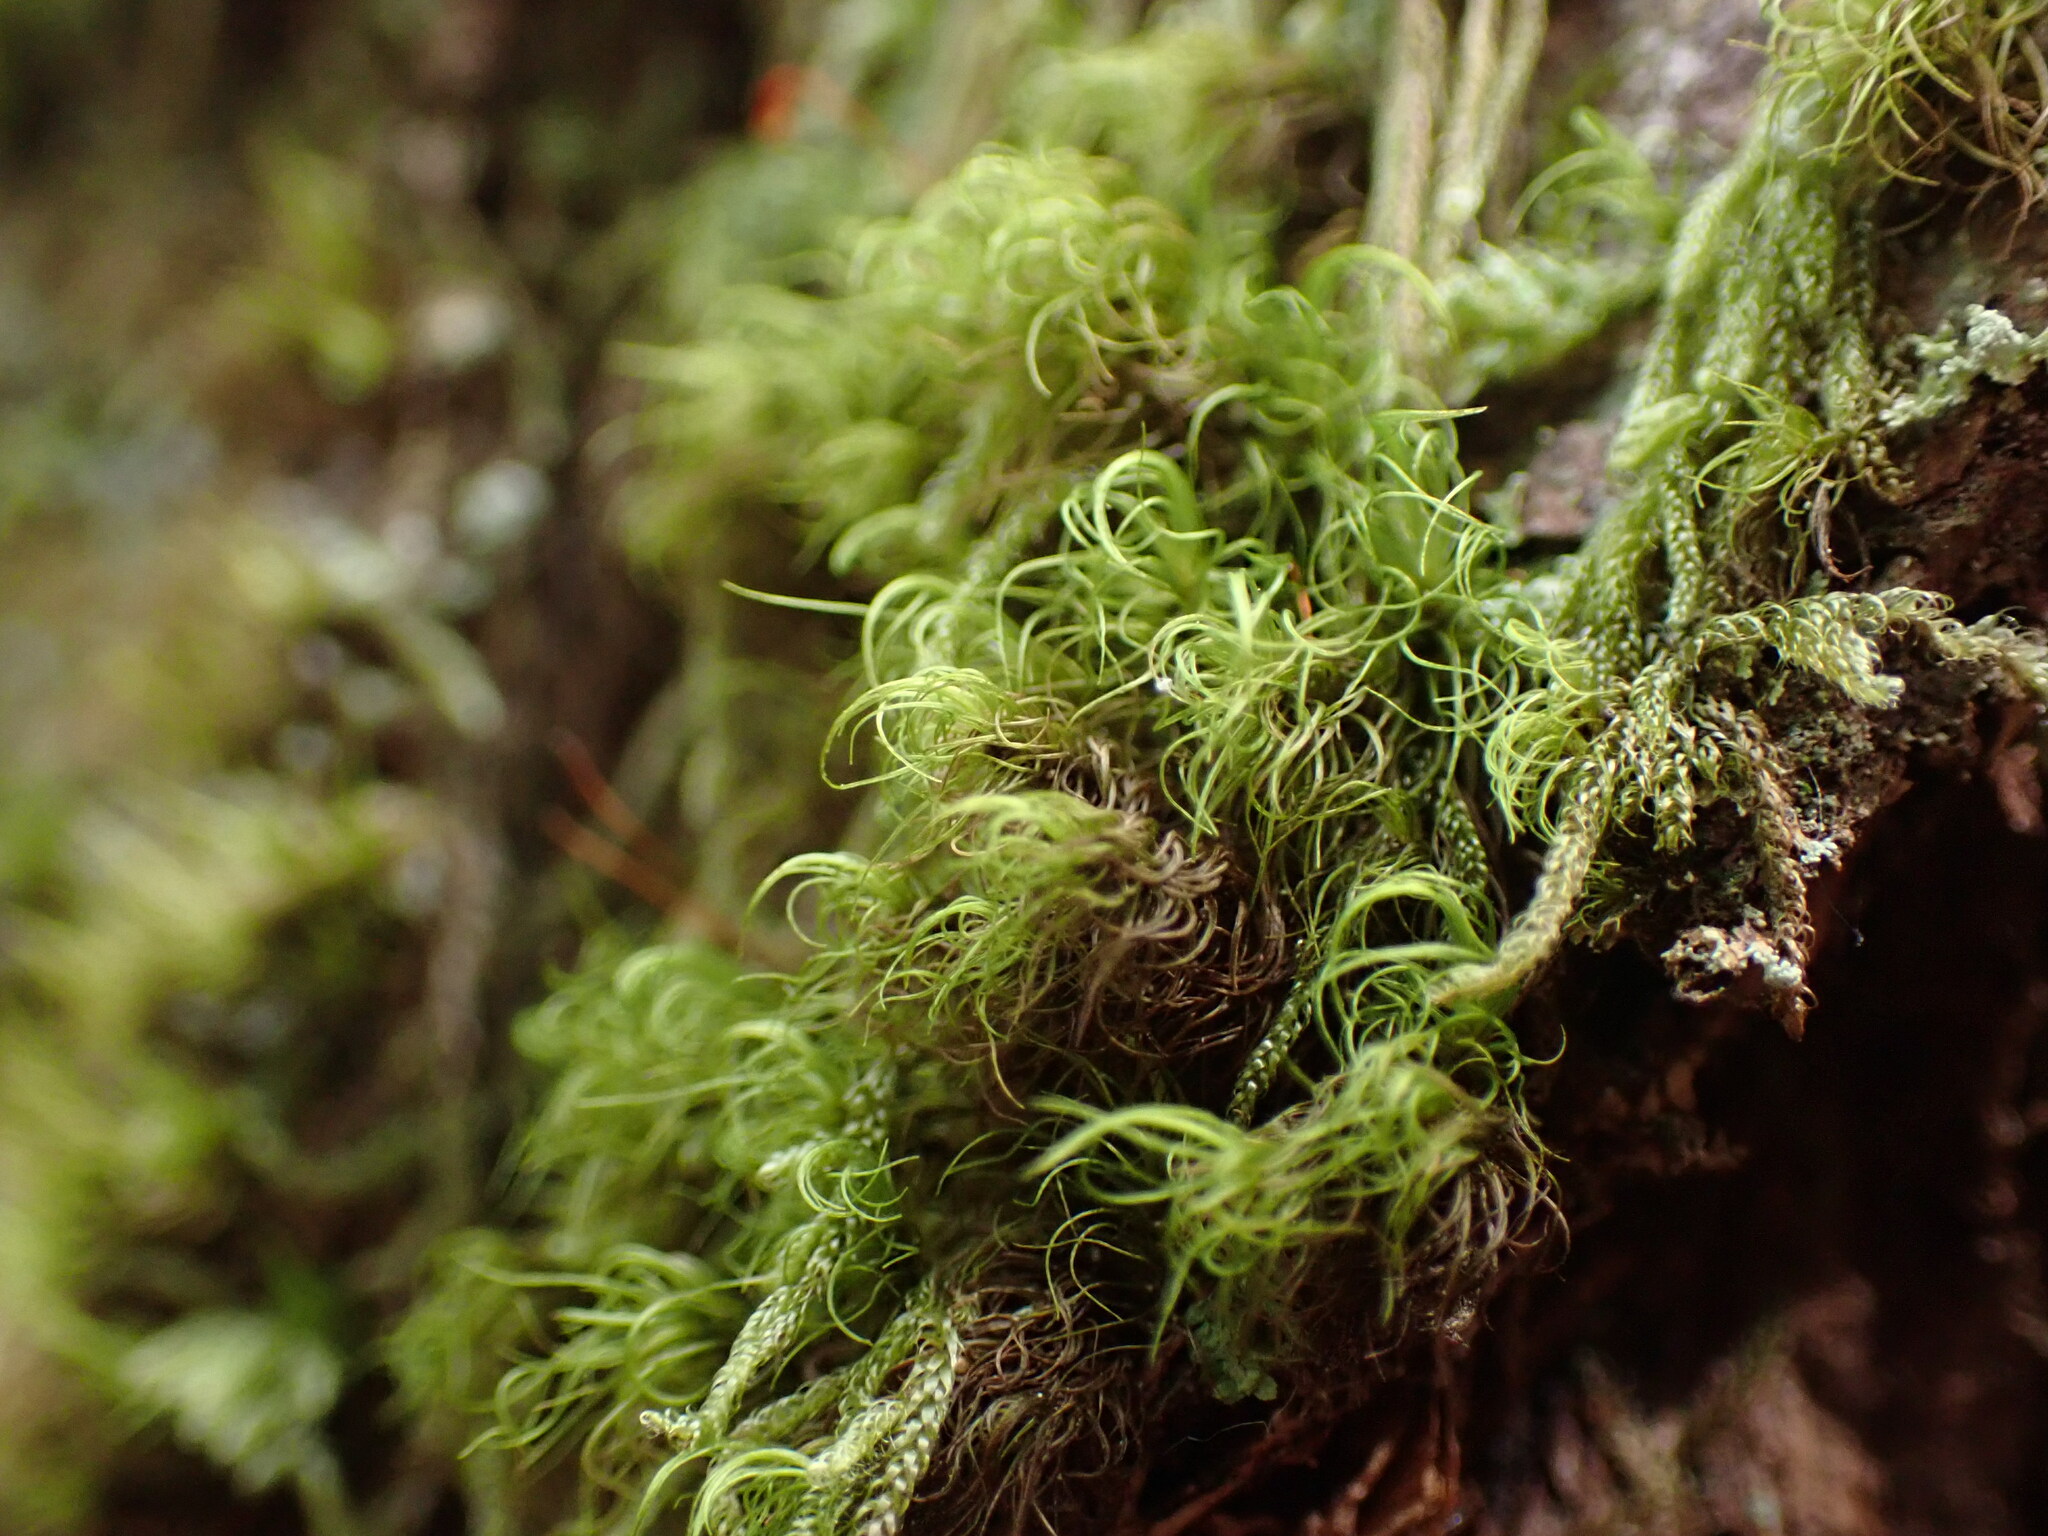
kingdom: Plantae
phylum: Bryophyta
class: Bryopsida
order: Dicranales
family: Dicranaceae
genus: Dicranum
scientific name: Dicranum fuscescens
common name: Curly heron's-bill moss
